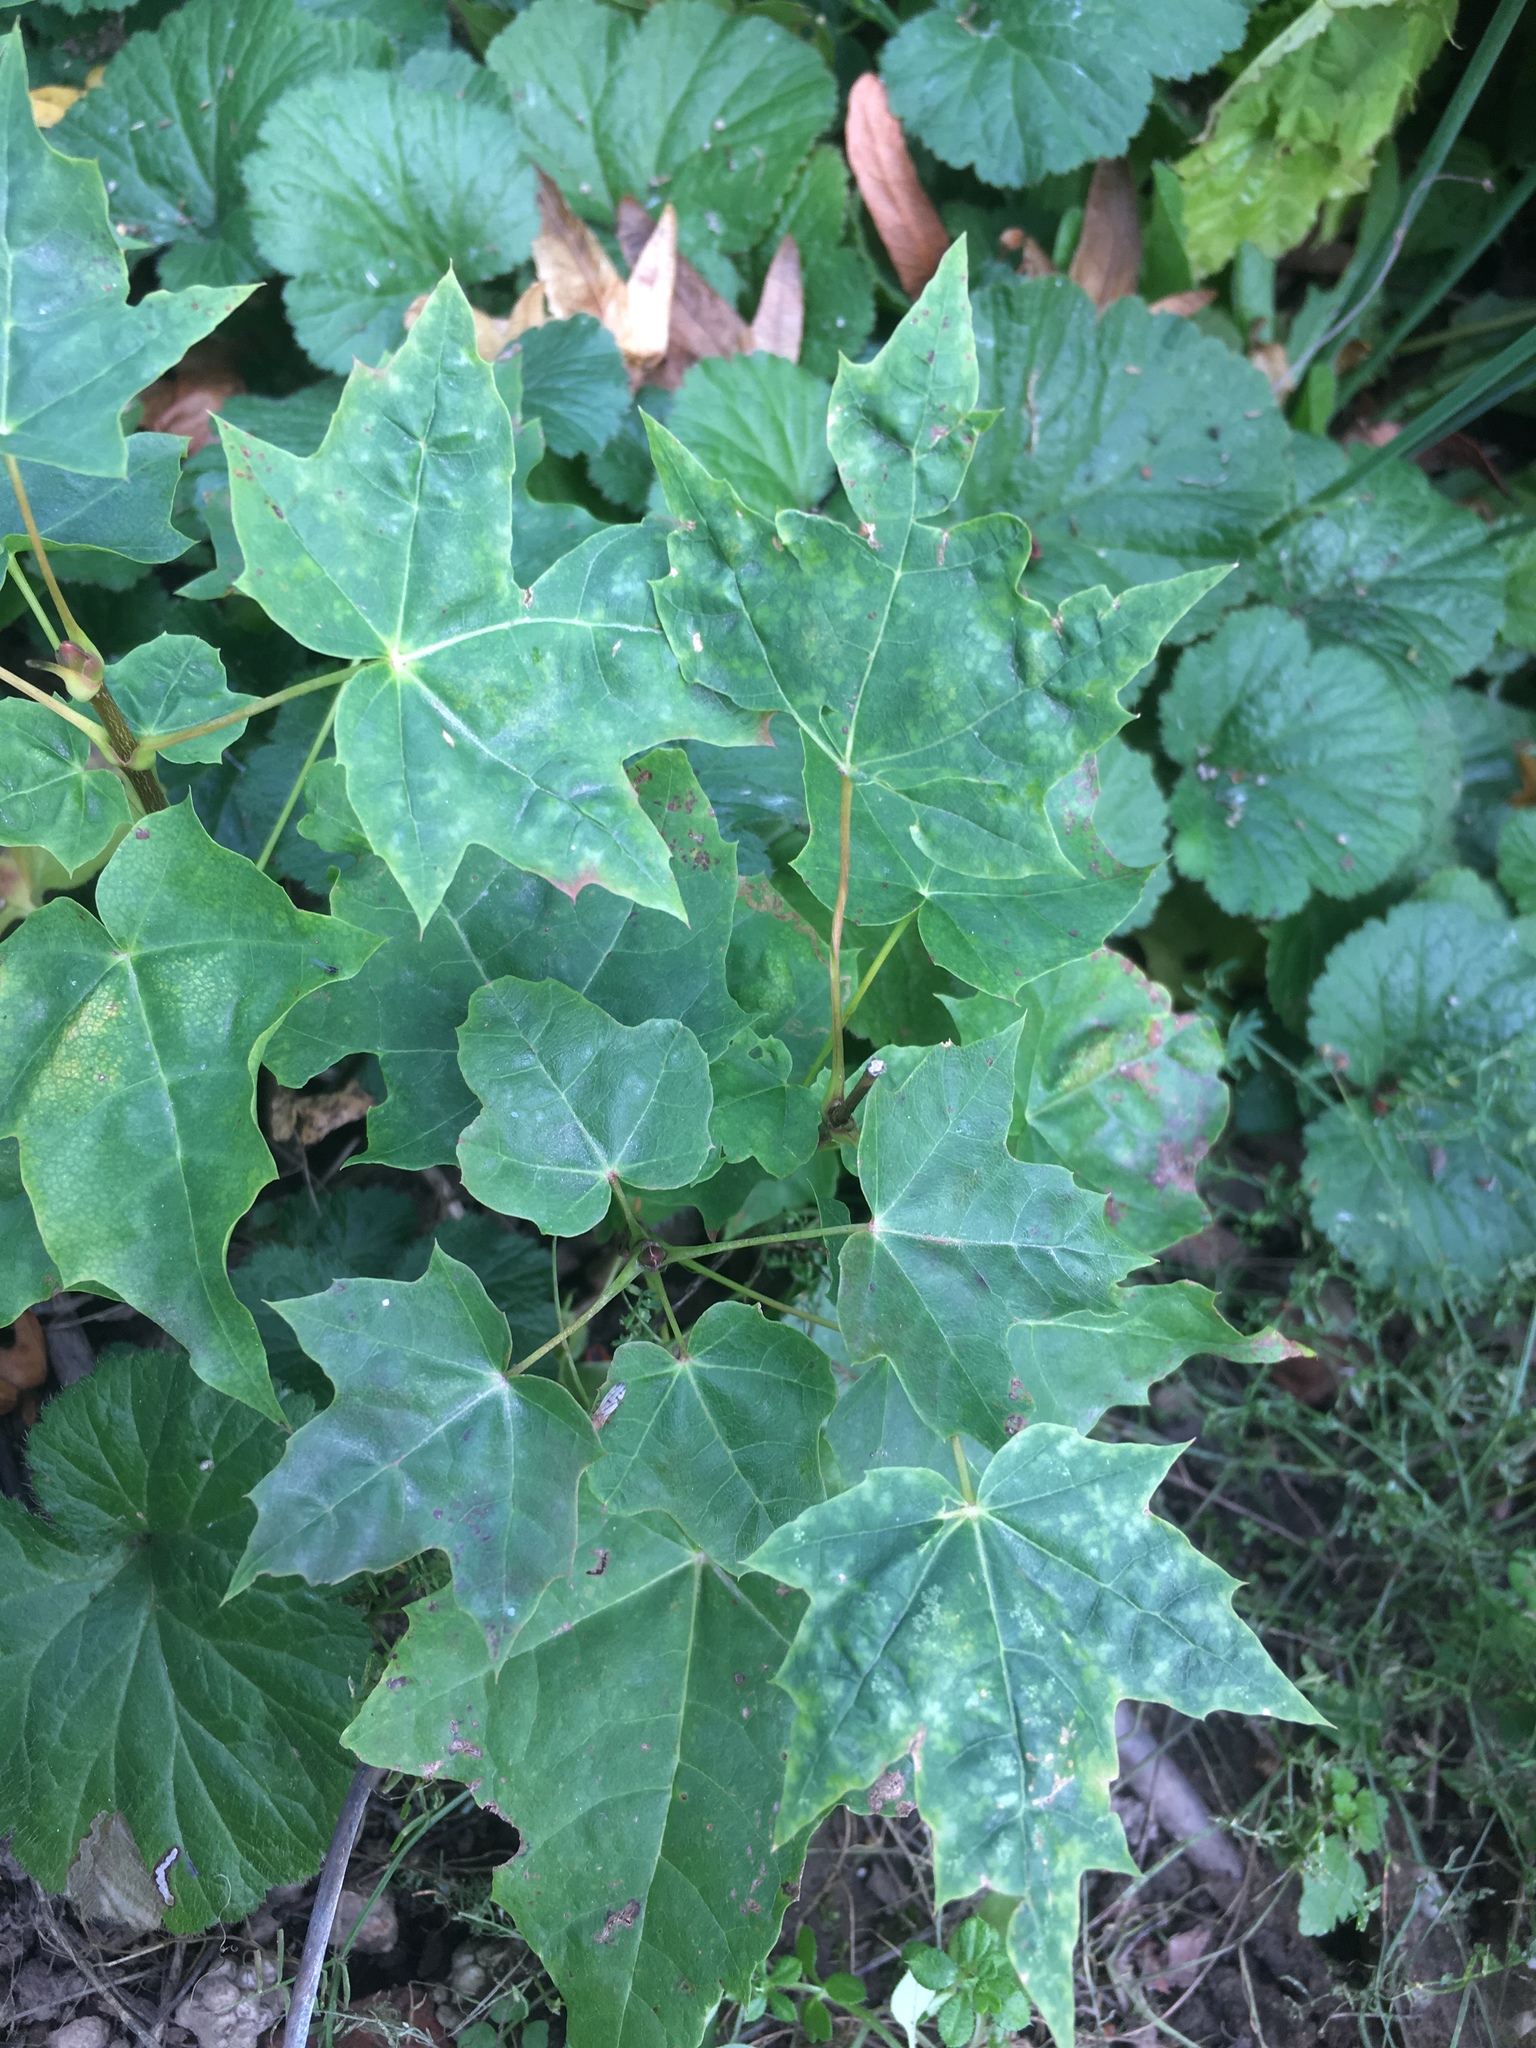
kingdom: Plantae
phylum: Tracheophyta
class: Magnoliopsida
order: Sapindales
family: Sapindaceae
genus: Acer
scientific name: Acer platanoides
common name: Norway maple
